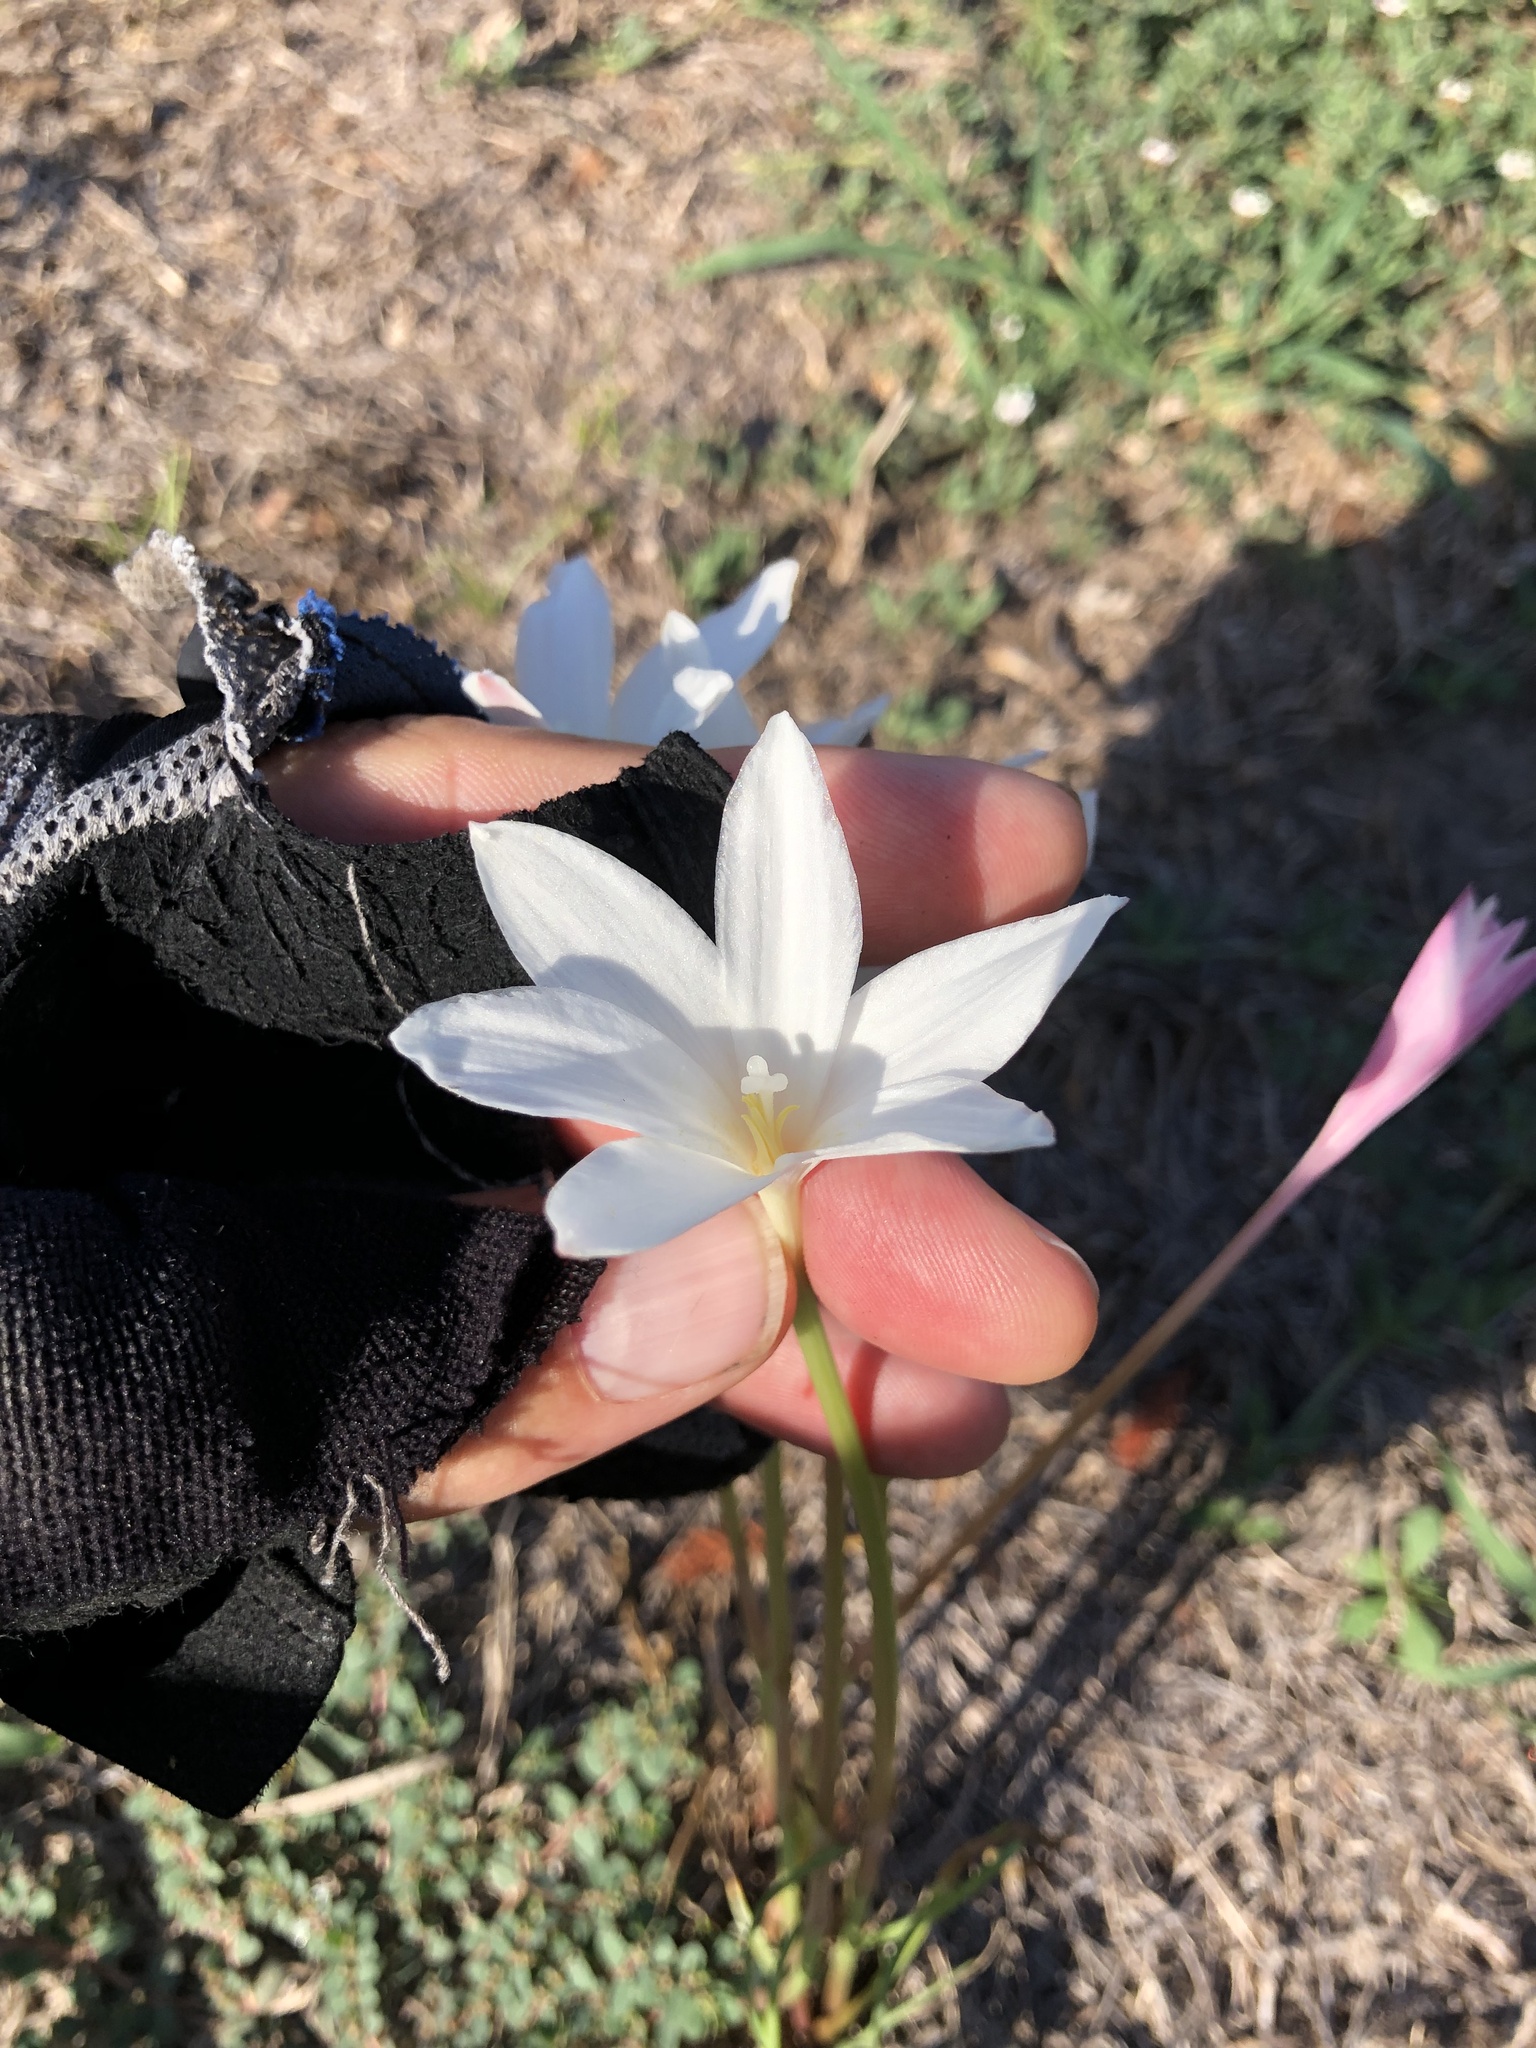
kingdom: Plantae
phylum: Tracheophyta
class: Liliopsida
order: Asparagales
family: Amaryllidaceae
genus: Zephyranthes
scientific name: Zephyranthes traubii
